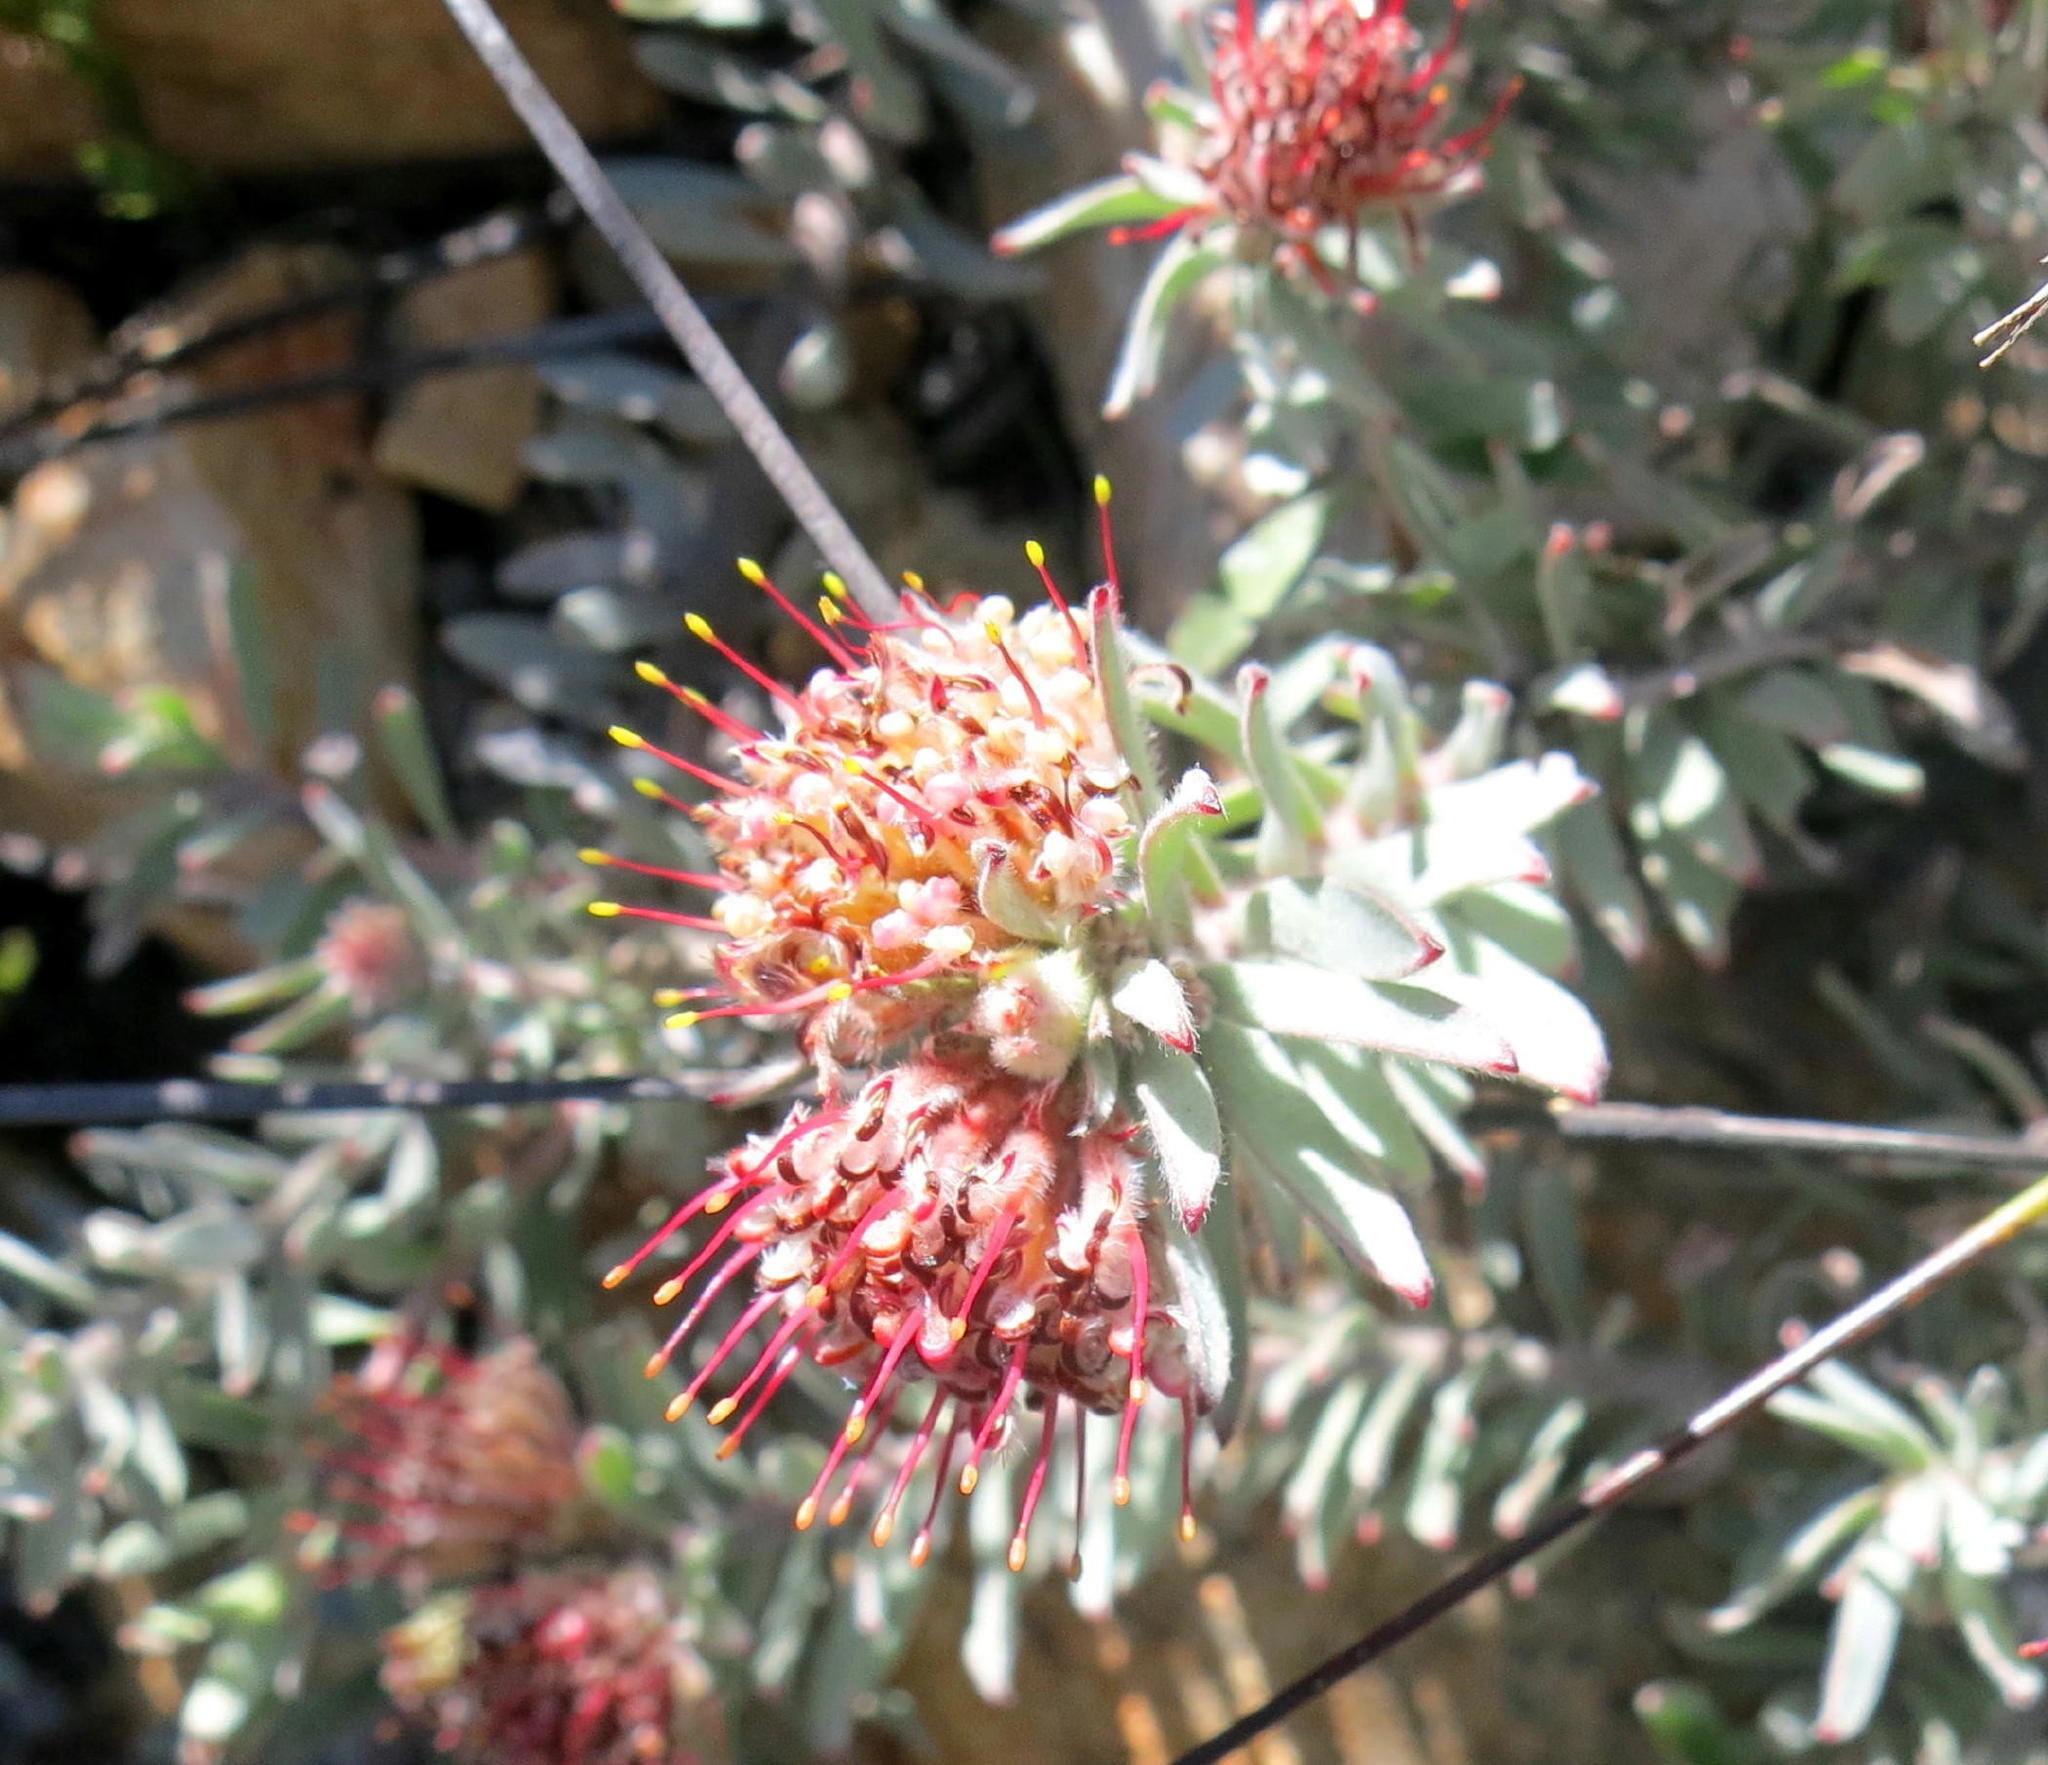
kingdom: Plantae
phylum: Tracheophyta
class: Magnoliopsida
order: Proteales
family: Proteaceae
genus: Leucospermum
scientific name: Leucospermum wittebergense
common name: Swartberg pincushion
